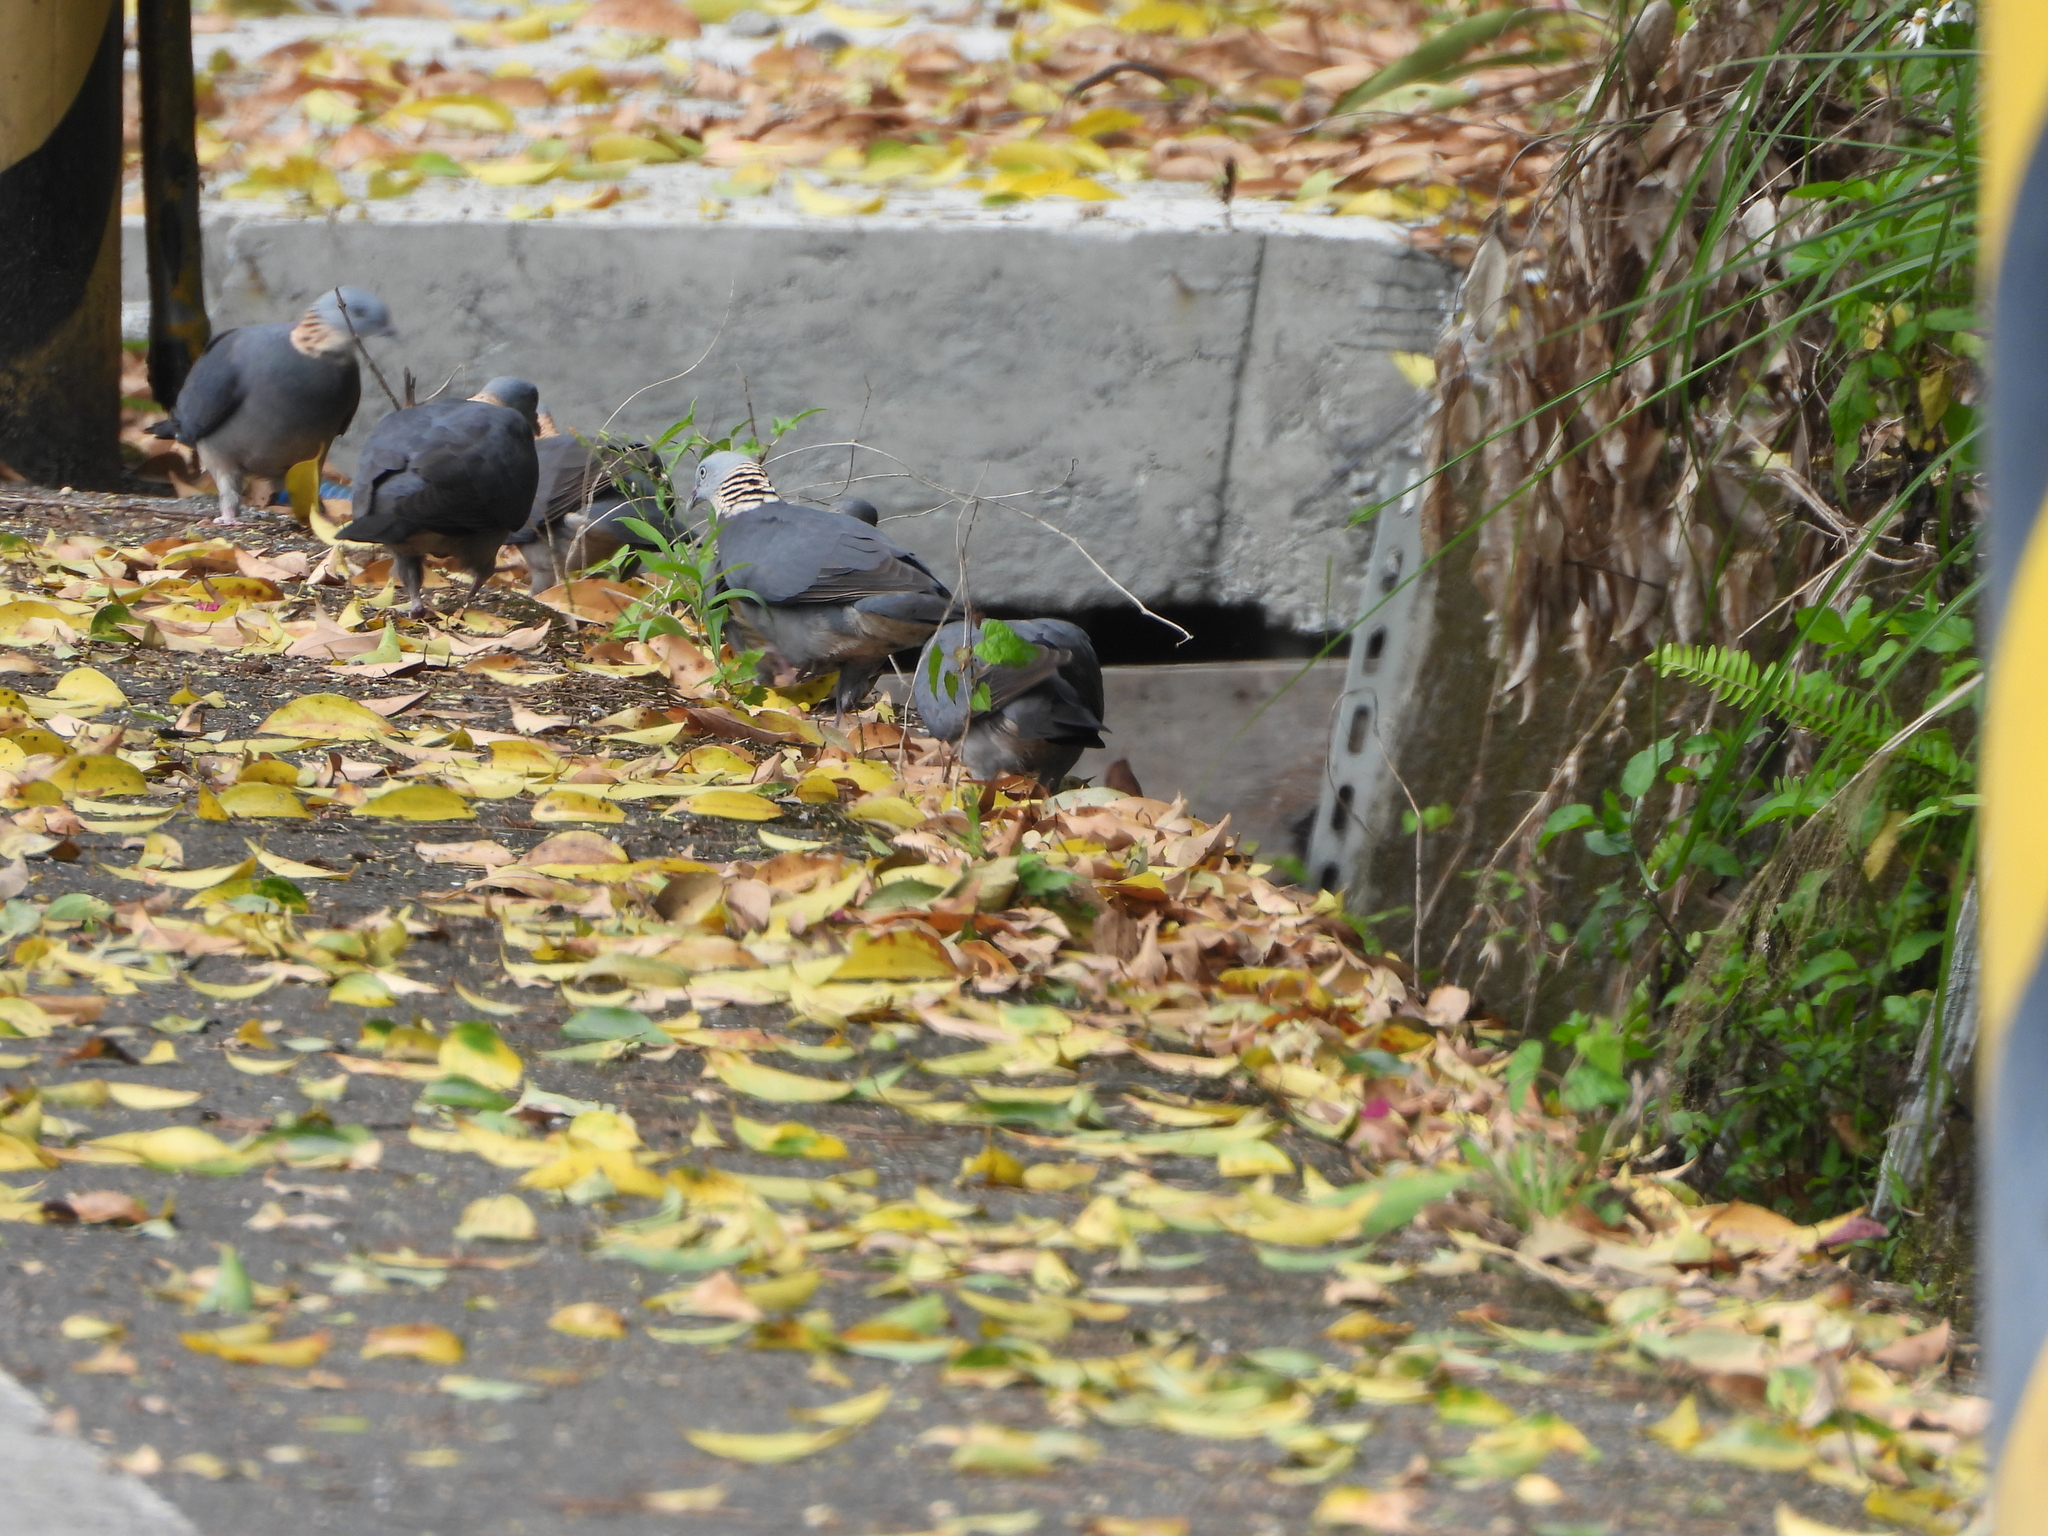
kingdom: Animalia
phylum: Chordata
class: Aves
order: Columbiformes
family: Columbidae
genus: Columba
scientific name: Columba pulchricollis
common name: Ashy wood pigeon
